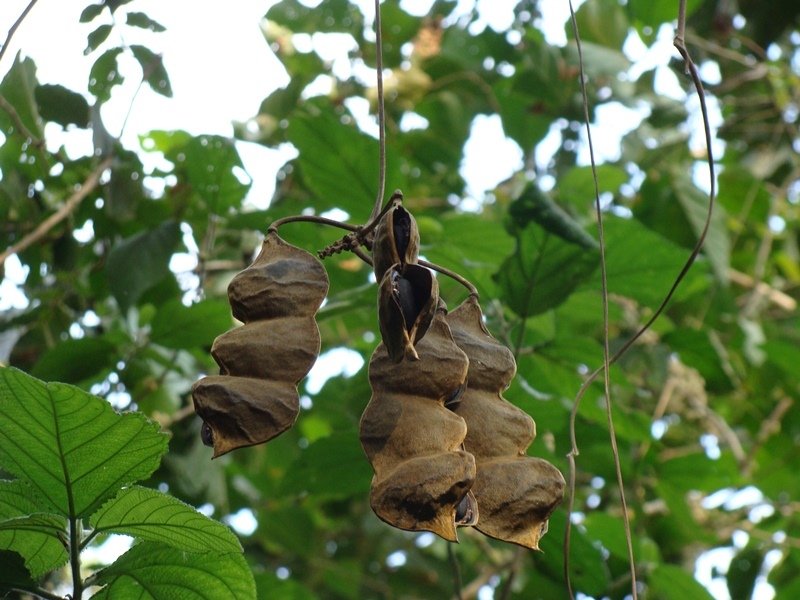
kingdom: Plantae
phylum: Tracheophyta
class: Magnoliopsida
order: Fabales
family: Fabaceae
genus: Mucuna
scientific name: Mucuna holtonii
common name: Hamburger bean
